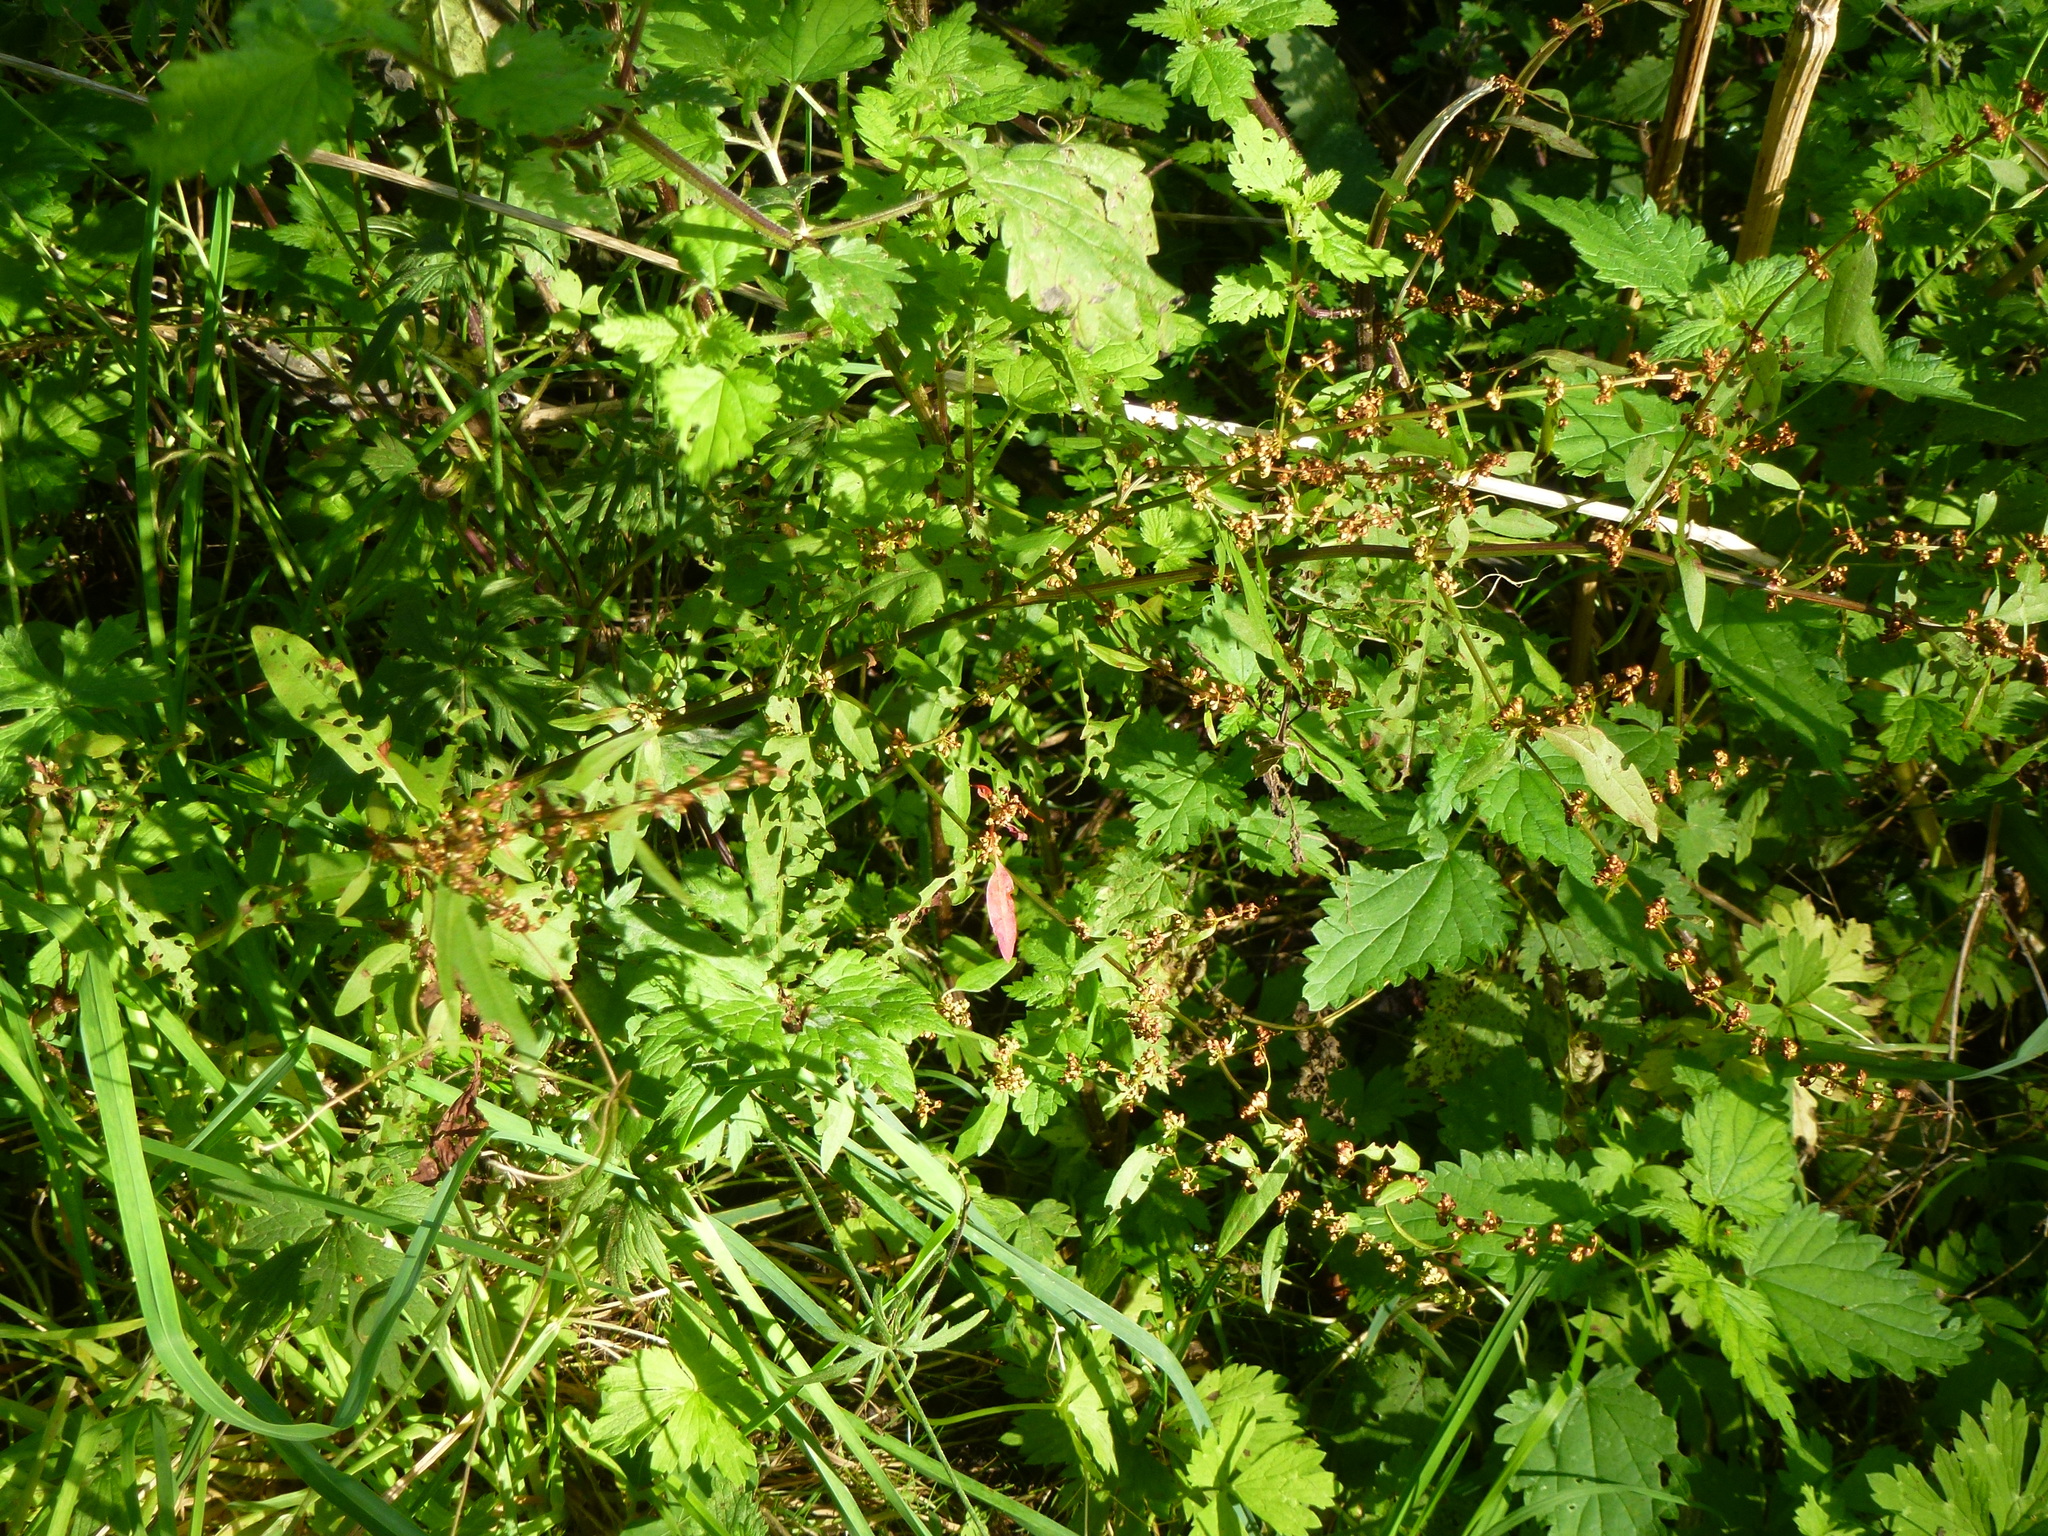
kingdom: Plantae
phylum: Tracheophyta
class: Magnoliopsida
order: Caryophyllales
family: Polygonaceae
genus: Rumex
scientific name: Rumex conglomeratus
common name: Clustered dock
